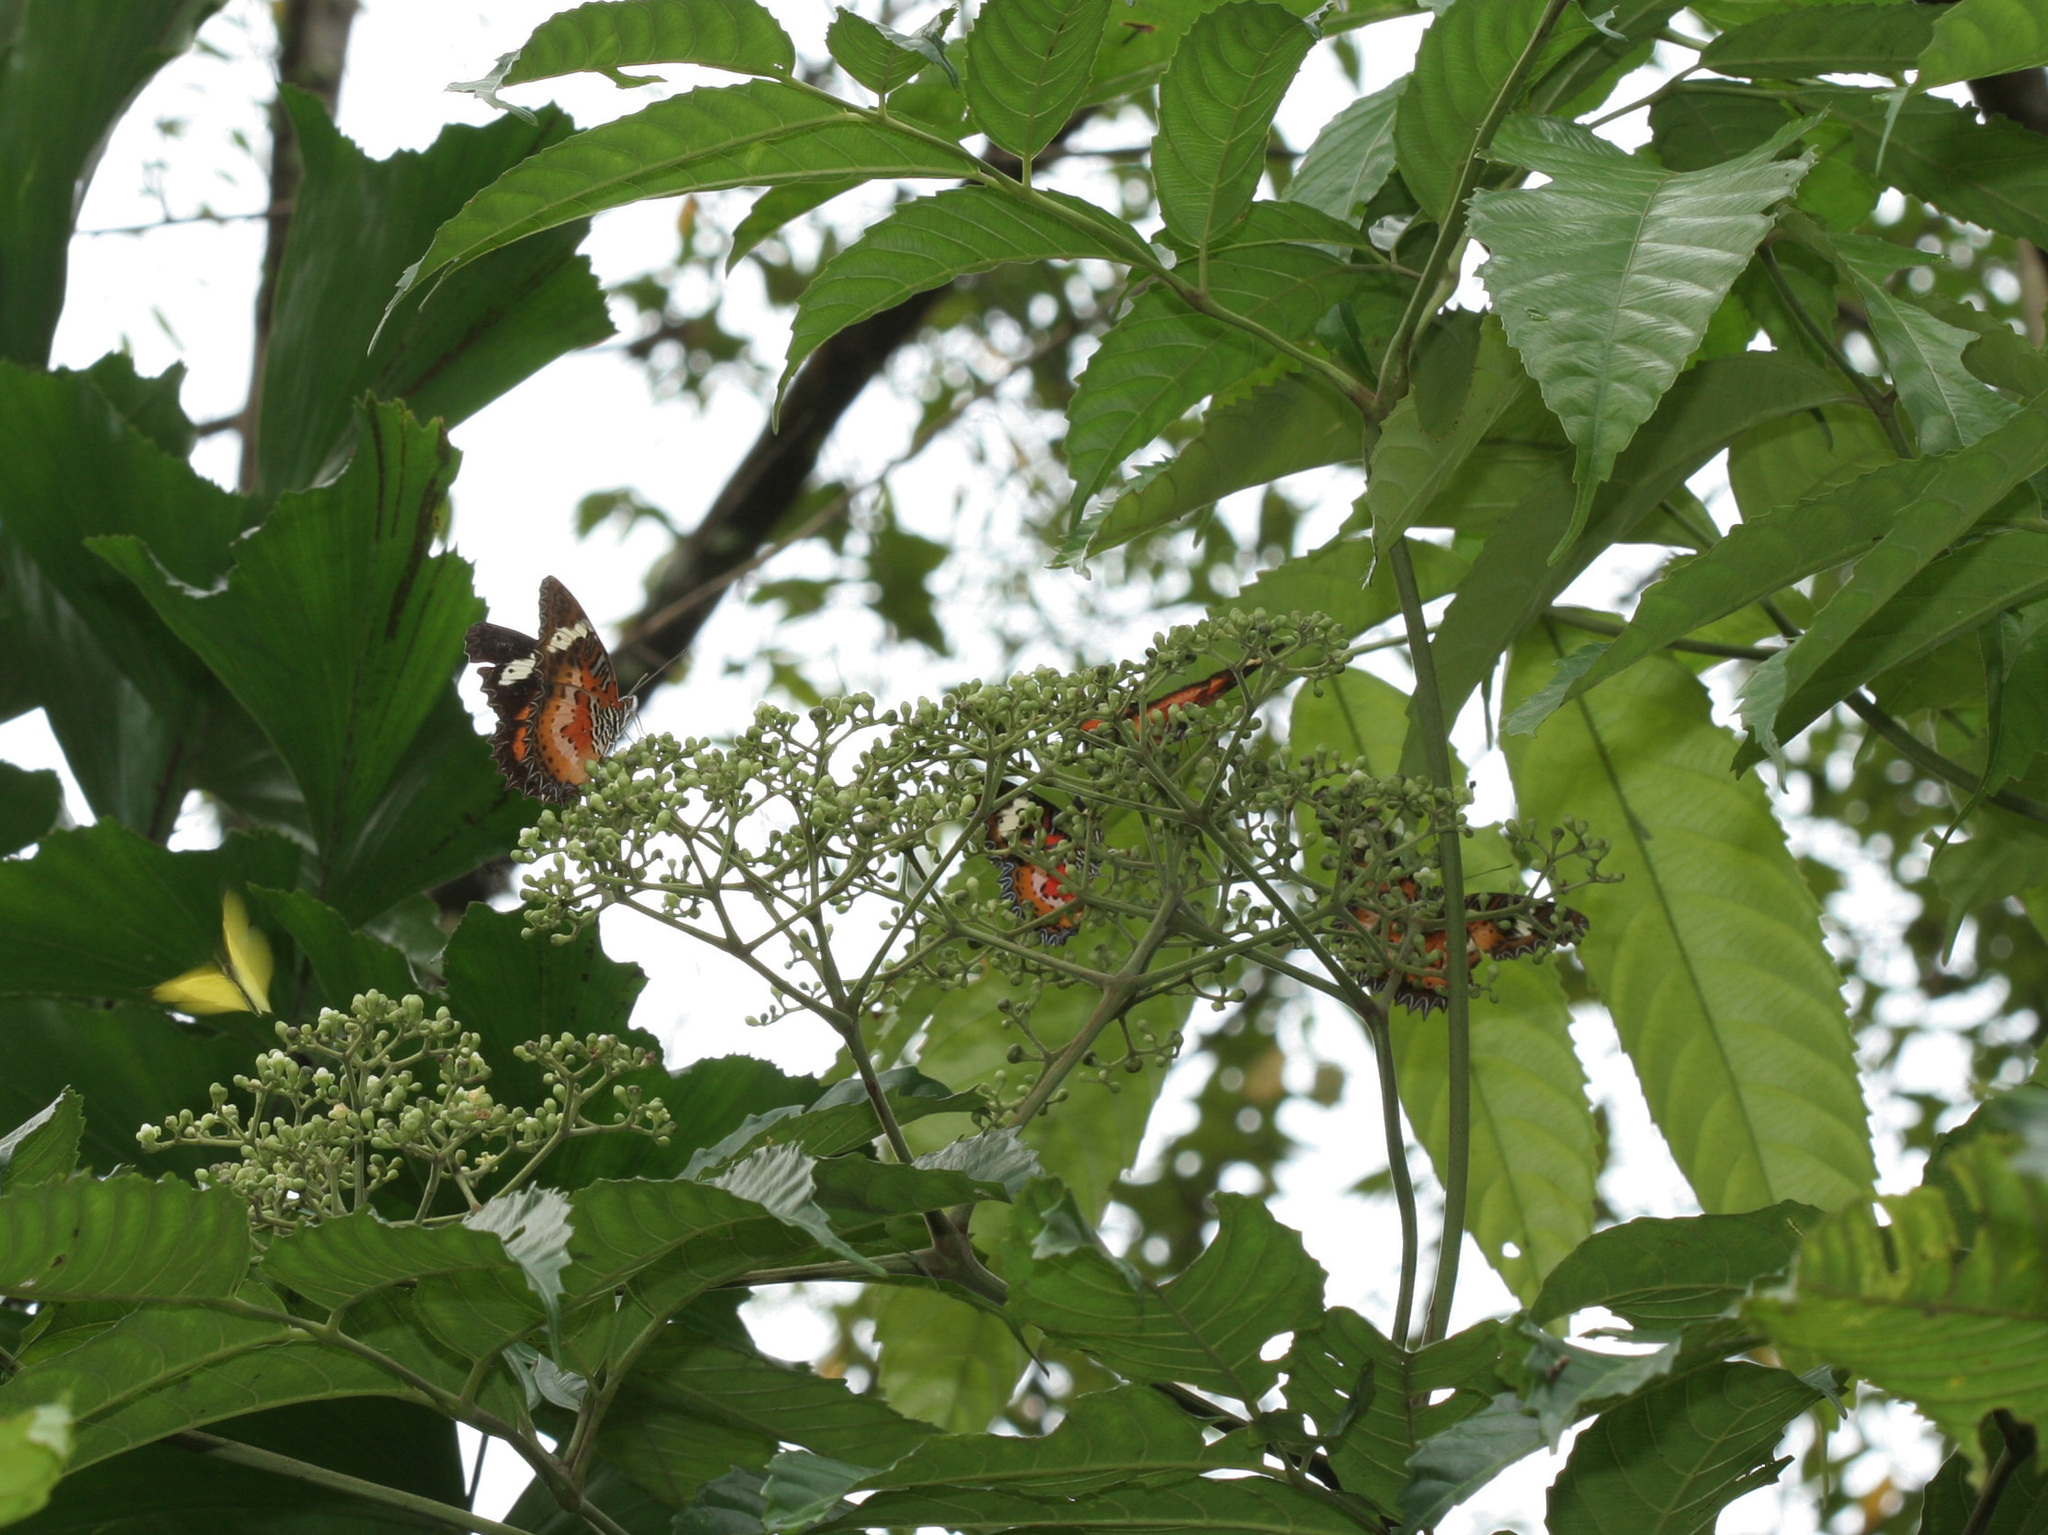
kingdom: Animalia
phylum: Arthropoda
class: Insecta
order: Lepidoptera
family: Nymphalidae
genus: Cethosia
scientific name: Cethosia hypsea
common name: Malayan lacewing butterfly
